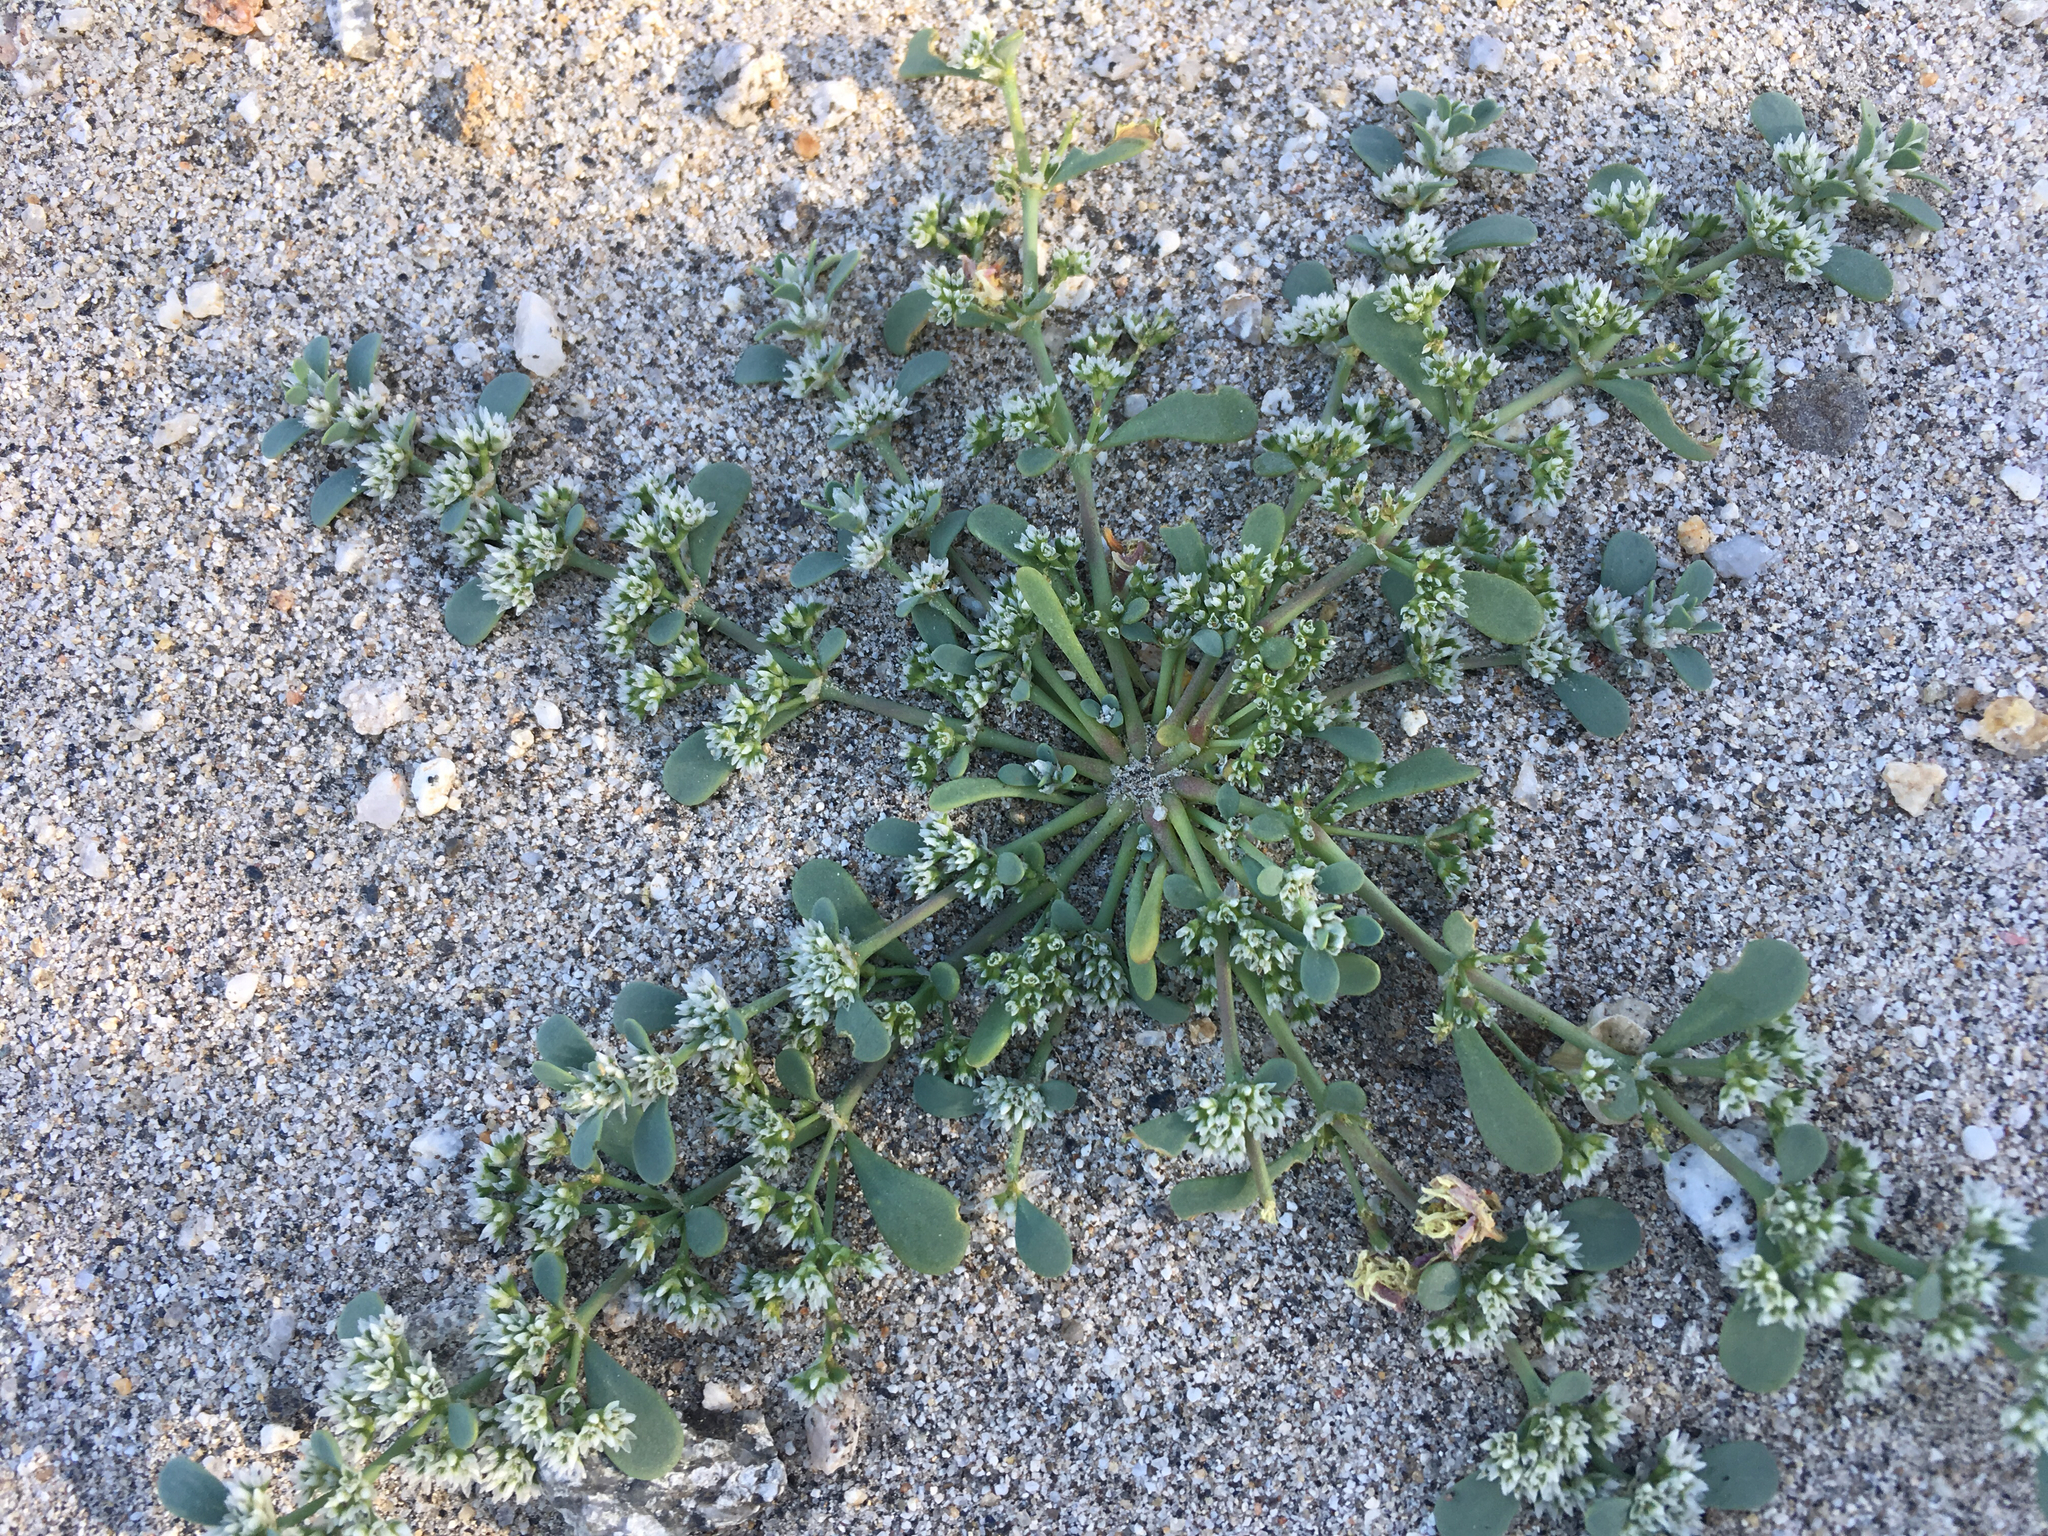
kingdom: Plantae
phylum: Tracheophyta
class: Magnoliopsida
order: Caryophyllales
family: Caryophyllaceae
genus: Achyronychia
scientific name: Achyronychia cooperi
